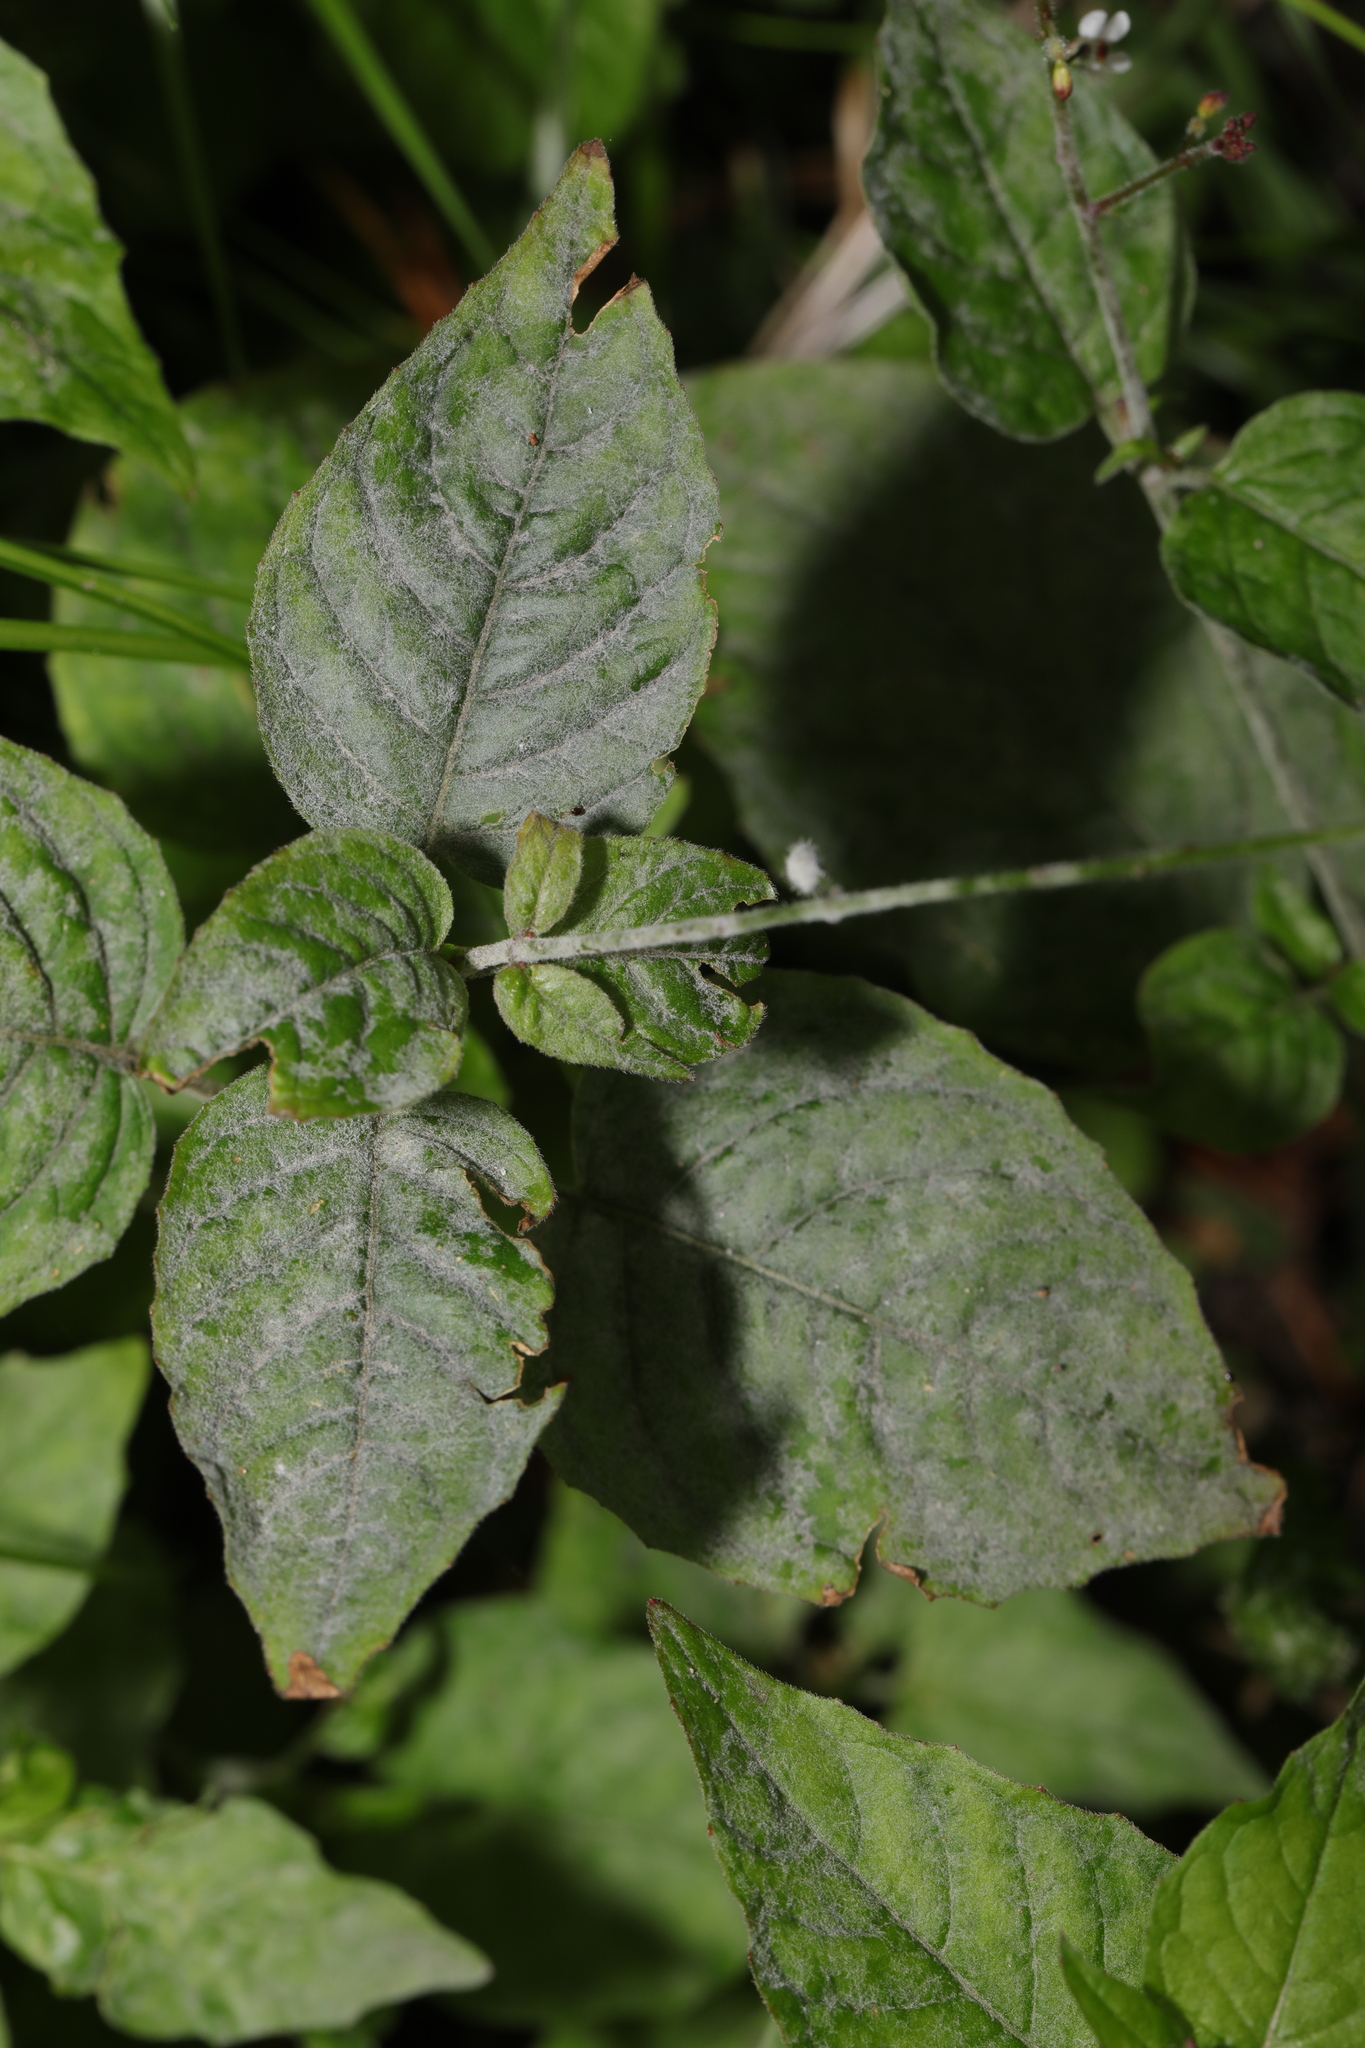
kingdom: Plantae
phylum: Tracheophyta
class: Magnoliopsida
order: Myrtales
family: Onagraceae
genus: Circaea
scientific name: Circaea lutetiana
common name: Enchanter's-nightshade
